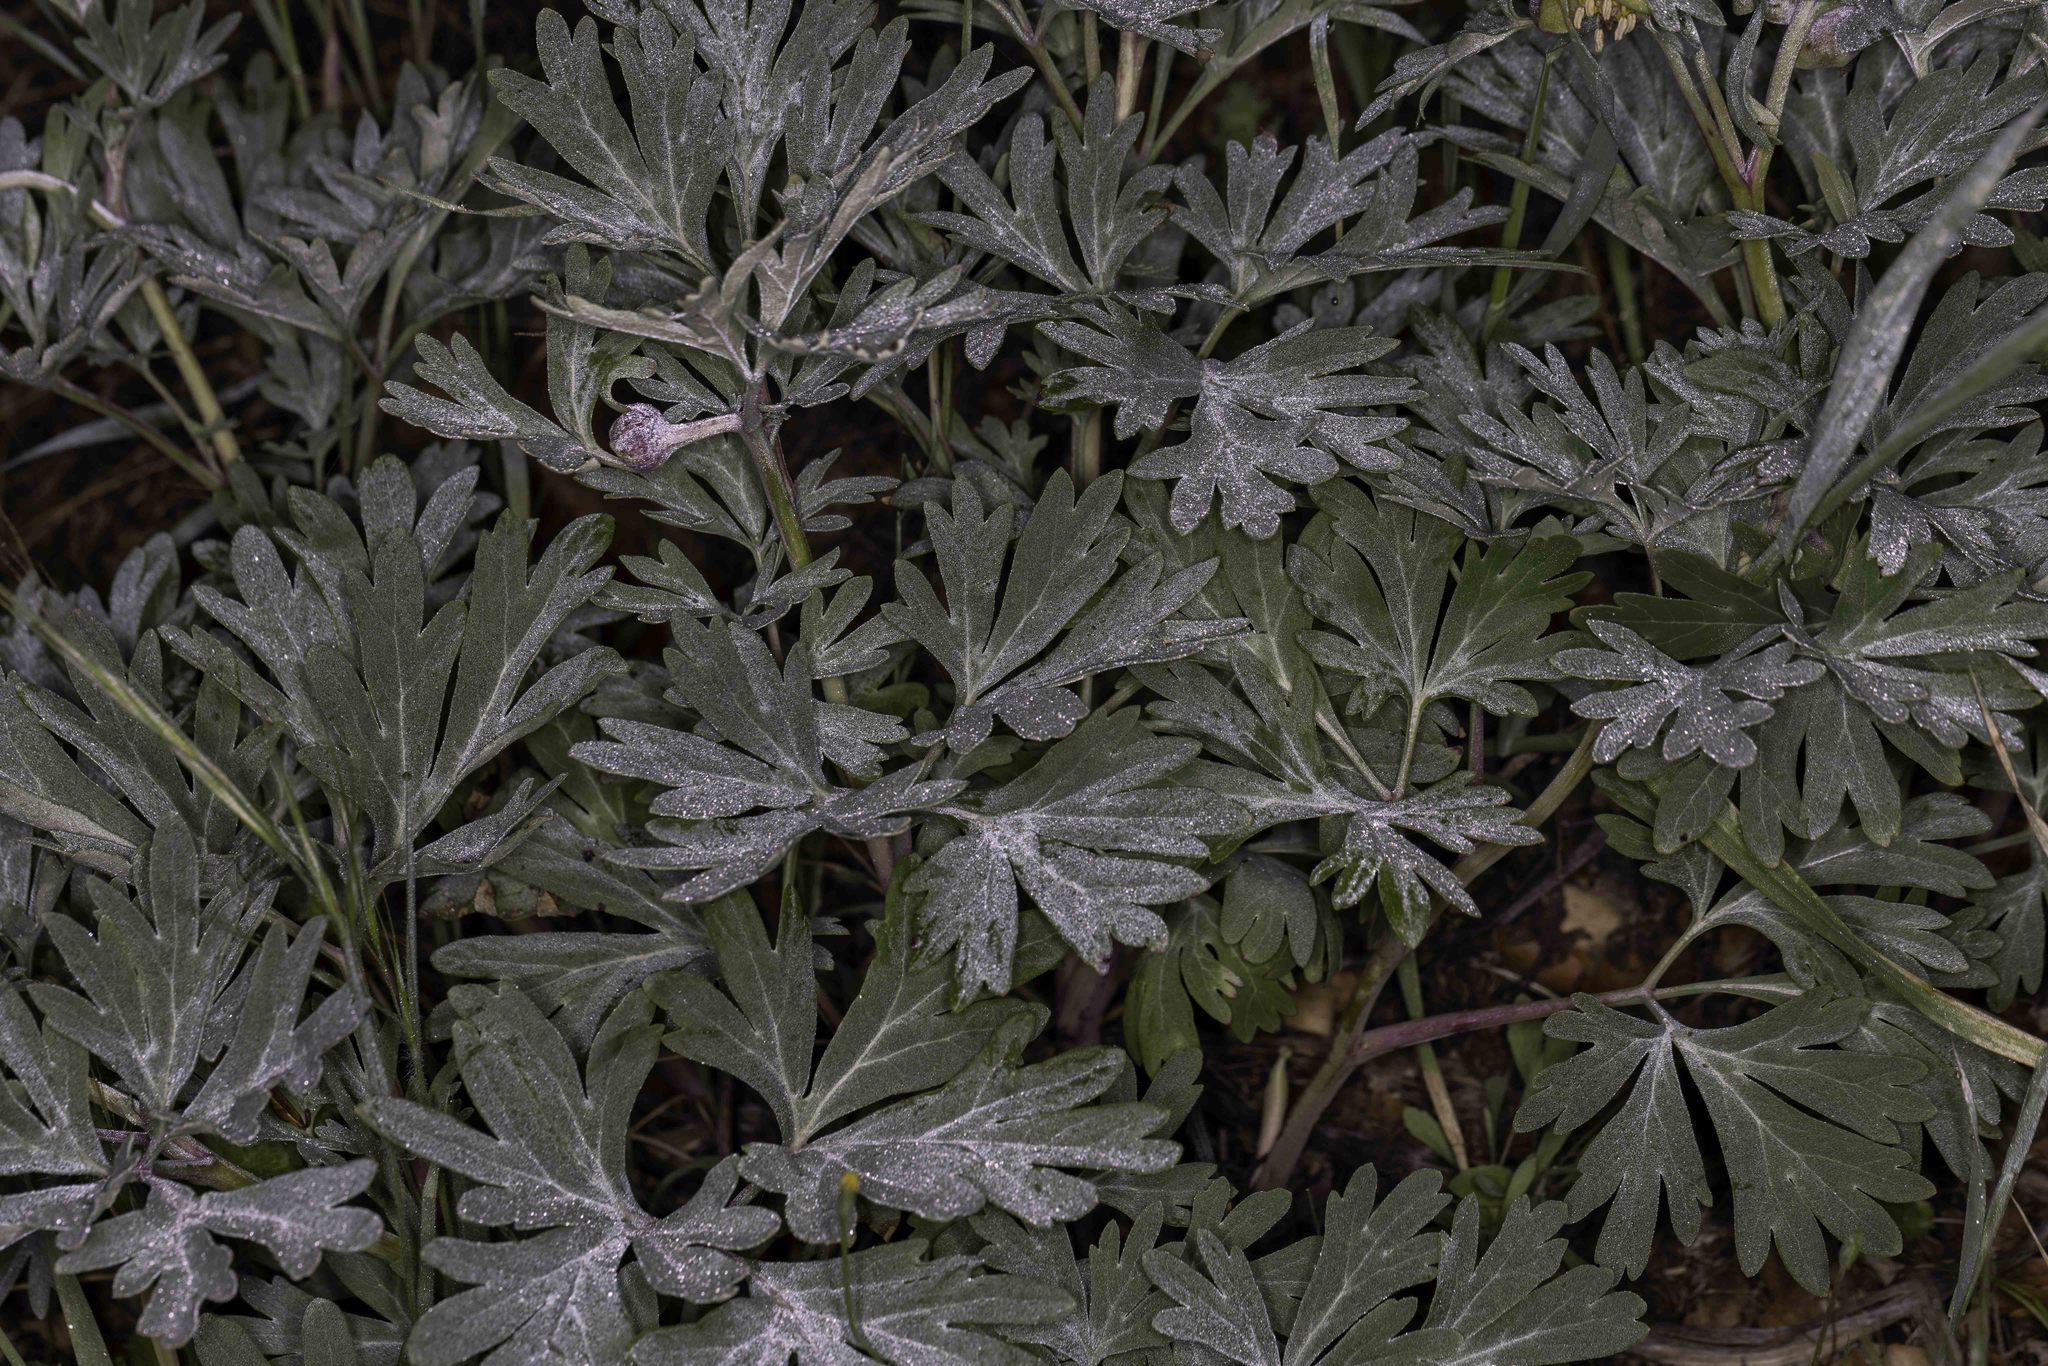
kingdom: Plantae
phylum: Tracheophyta
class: Magnoliopsida
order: Saxifragales
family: Paeoniaceae
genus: Paeonia
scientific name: Paeonia californica
